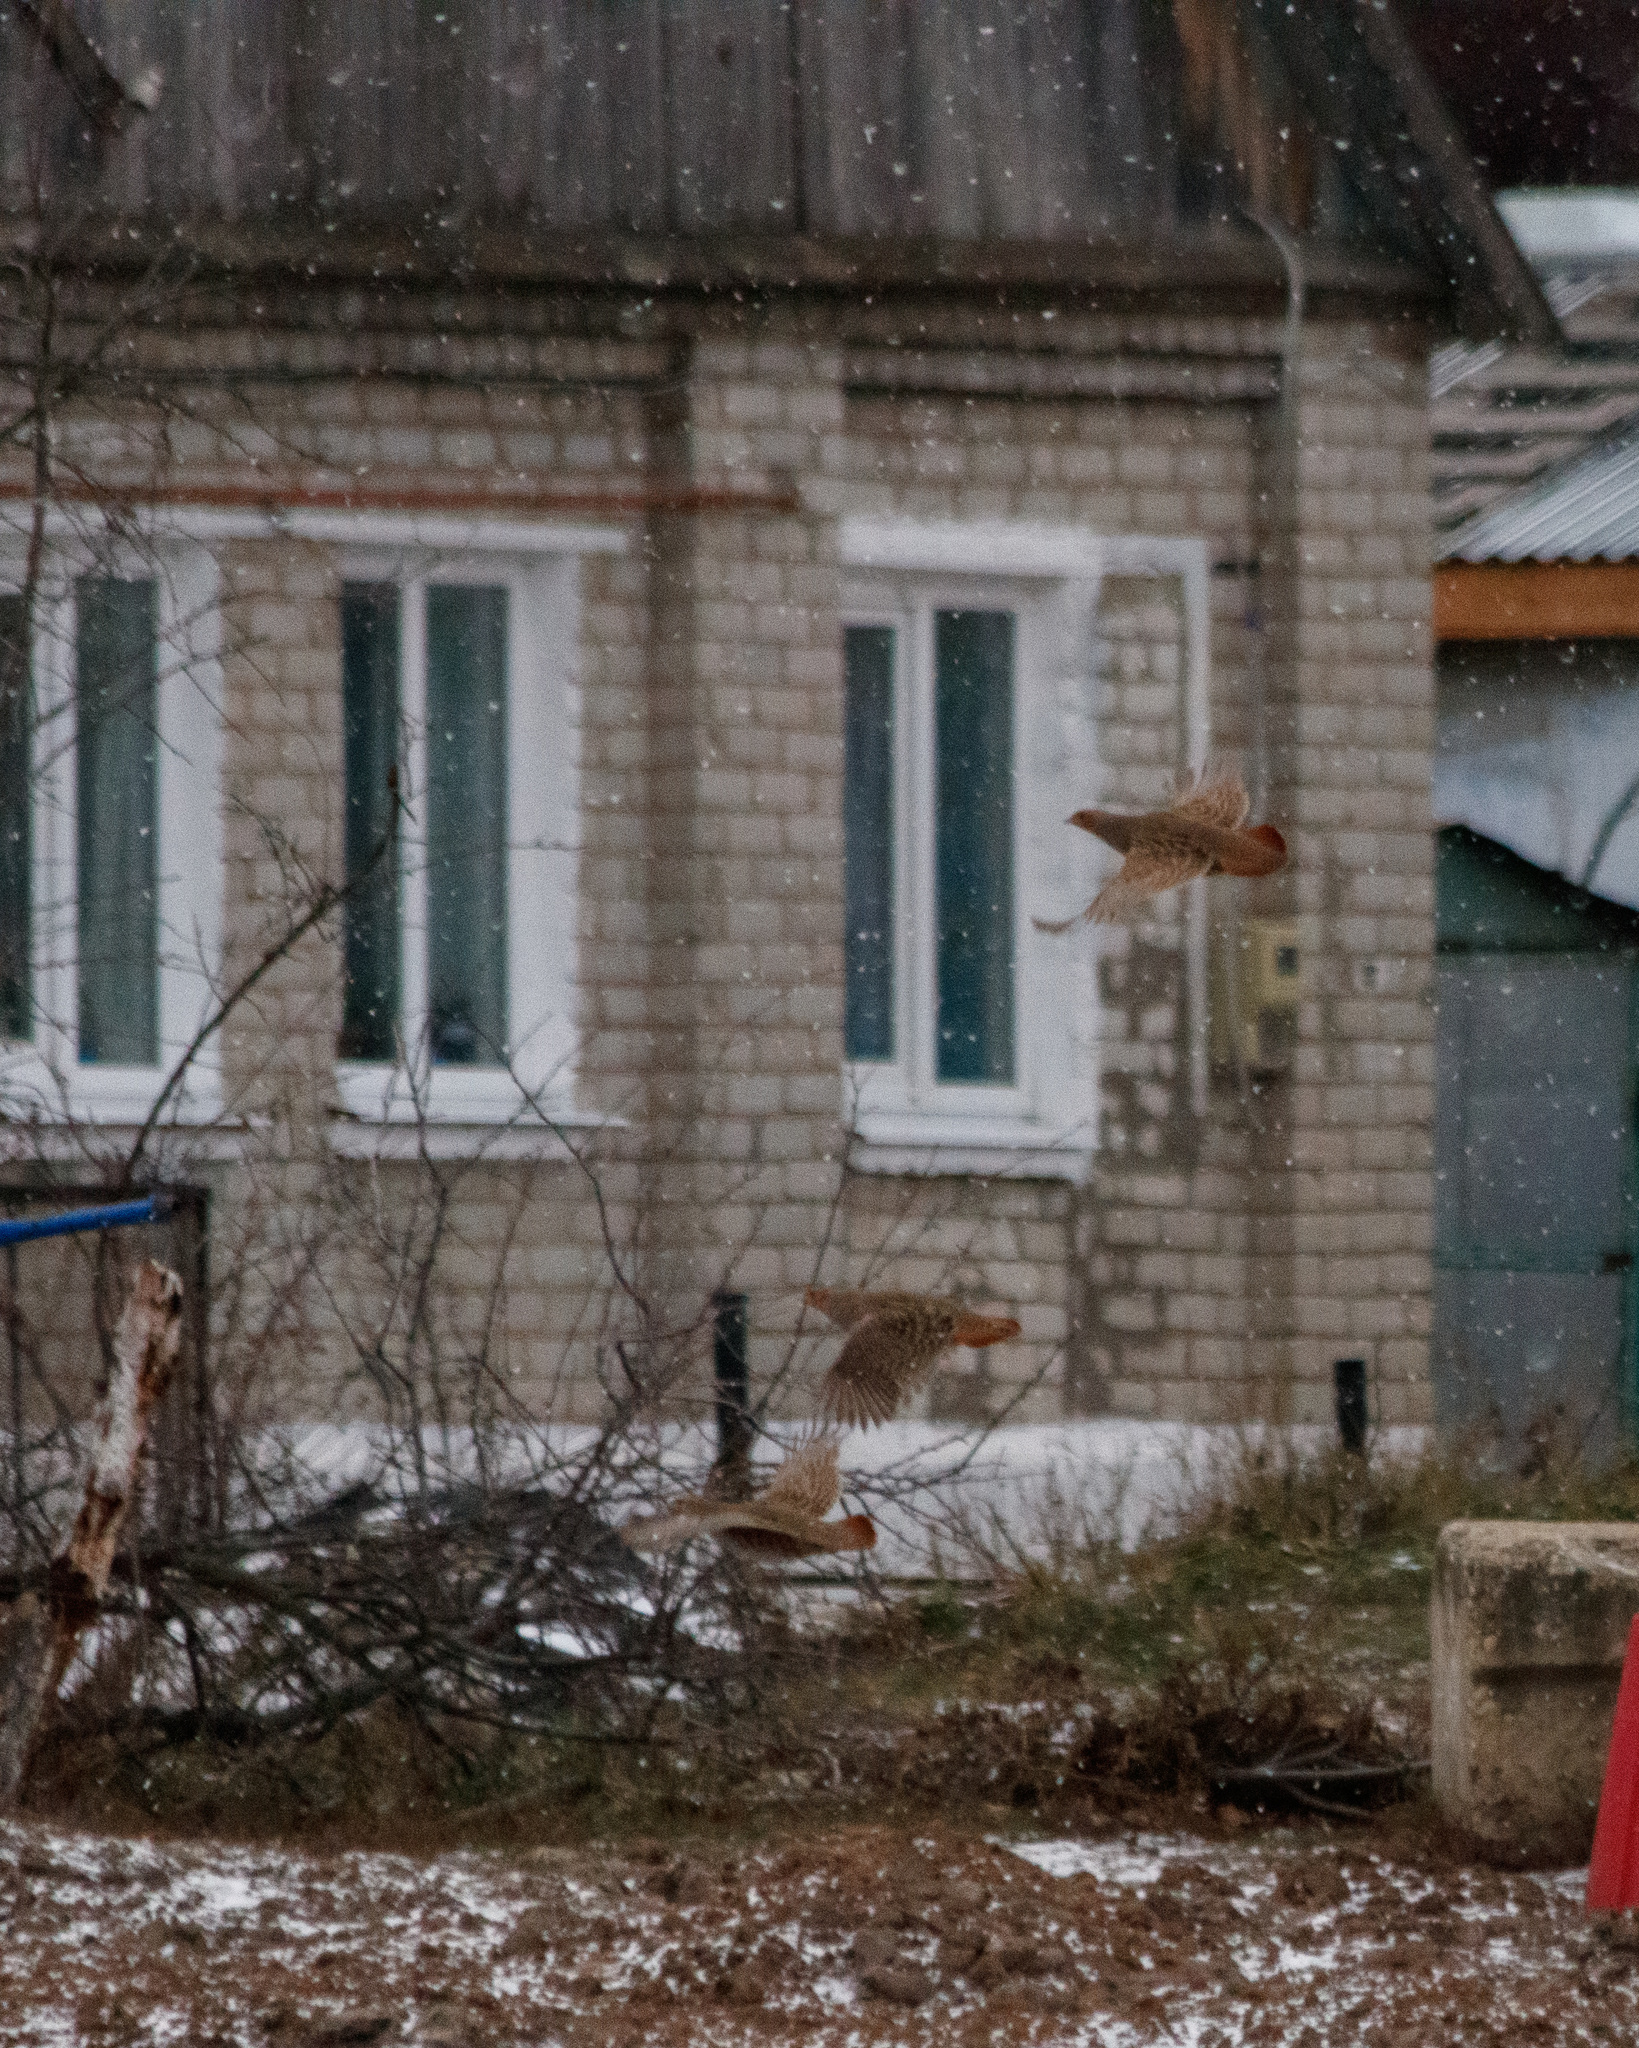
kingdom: Animalia
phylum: Chordata
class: Aves
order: Galliformes
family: Phasianidae
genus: Perdix
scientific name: Perdix perdix
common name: Grey partridge
